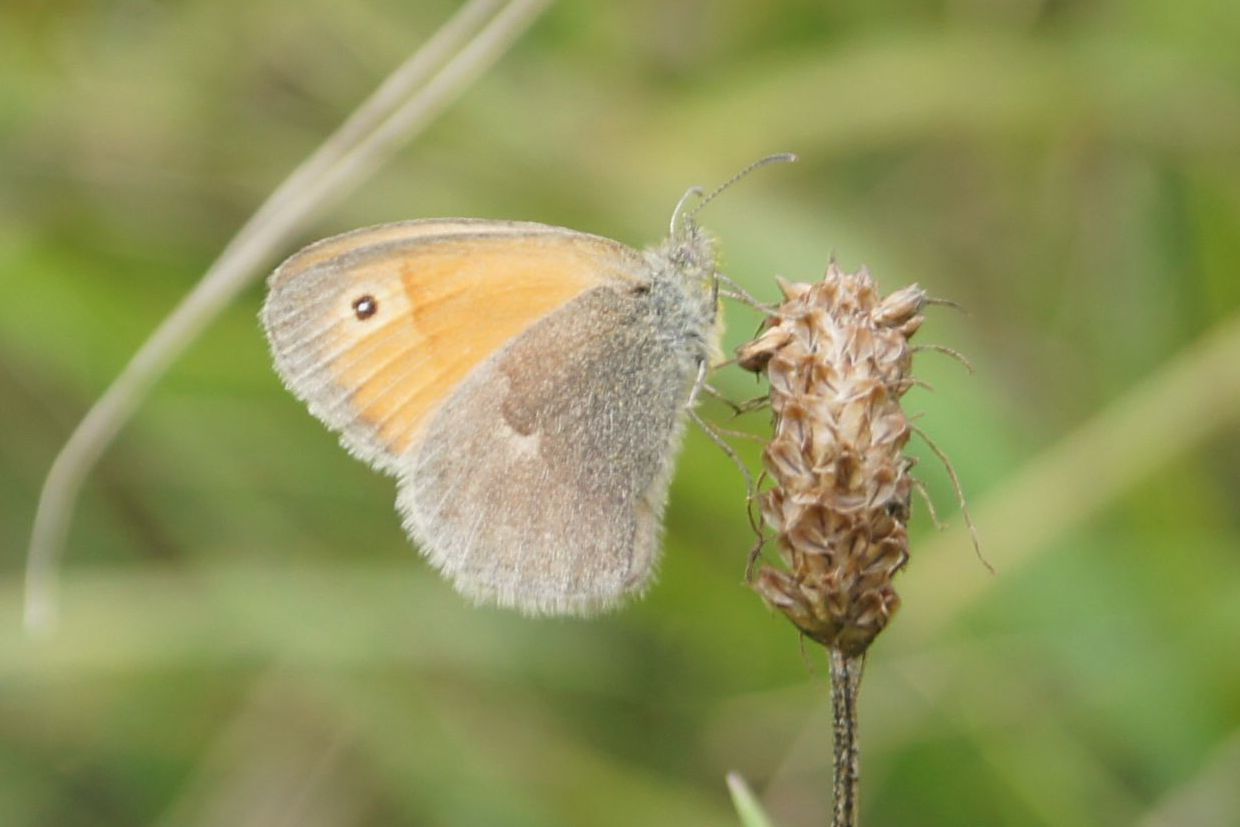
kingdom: Animalia
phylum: Arthropoda
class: Insecta
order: Lepidoptera
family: Nymphalidae
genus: Coenonympha
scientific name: Coenonympha pamphilus
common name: Small heath
